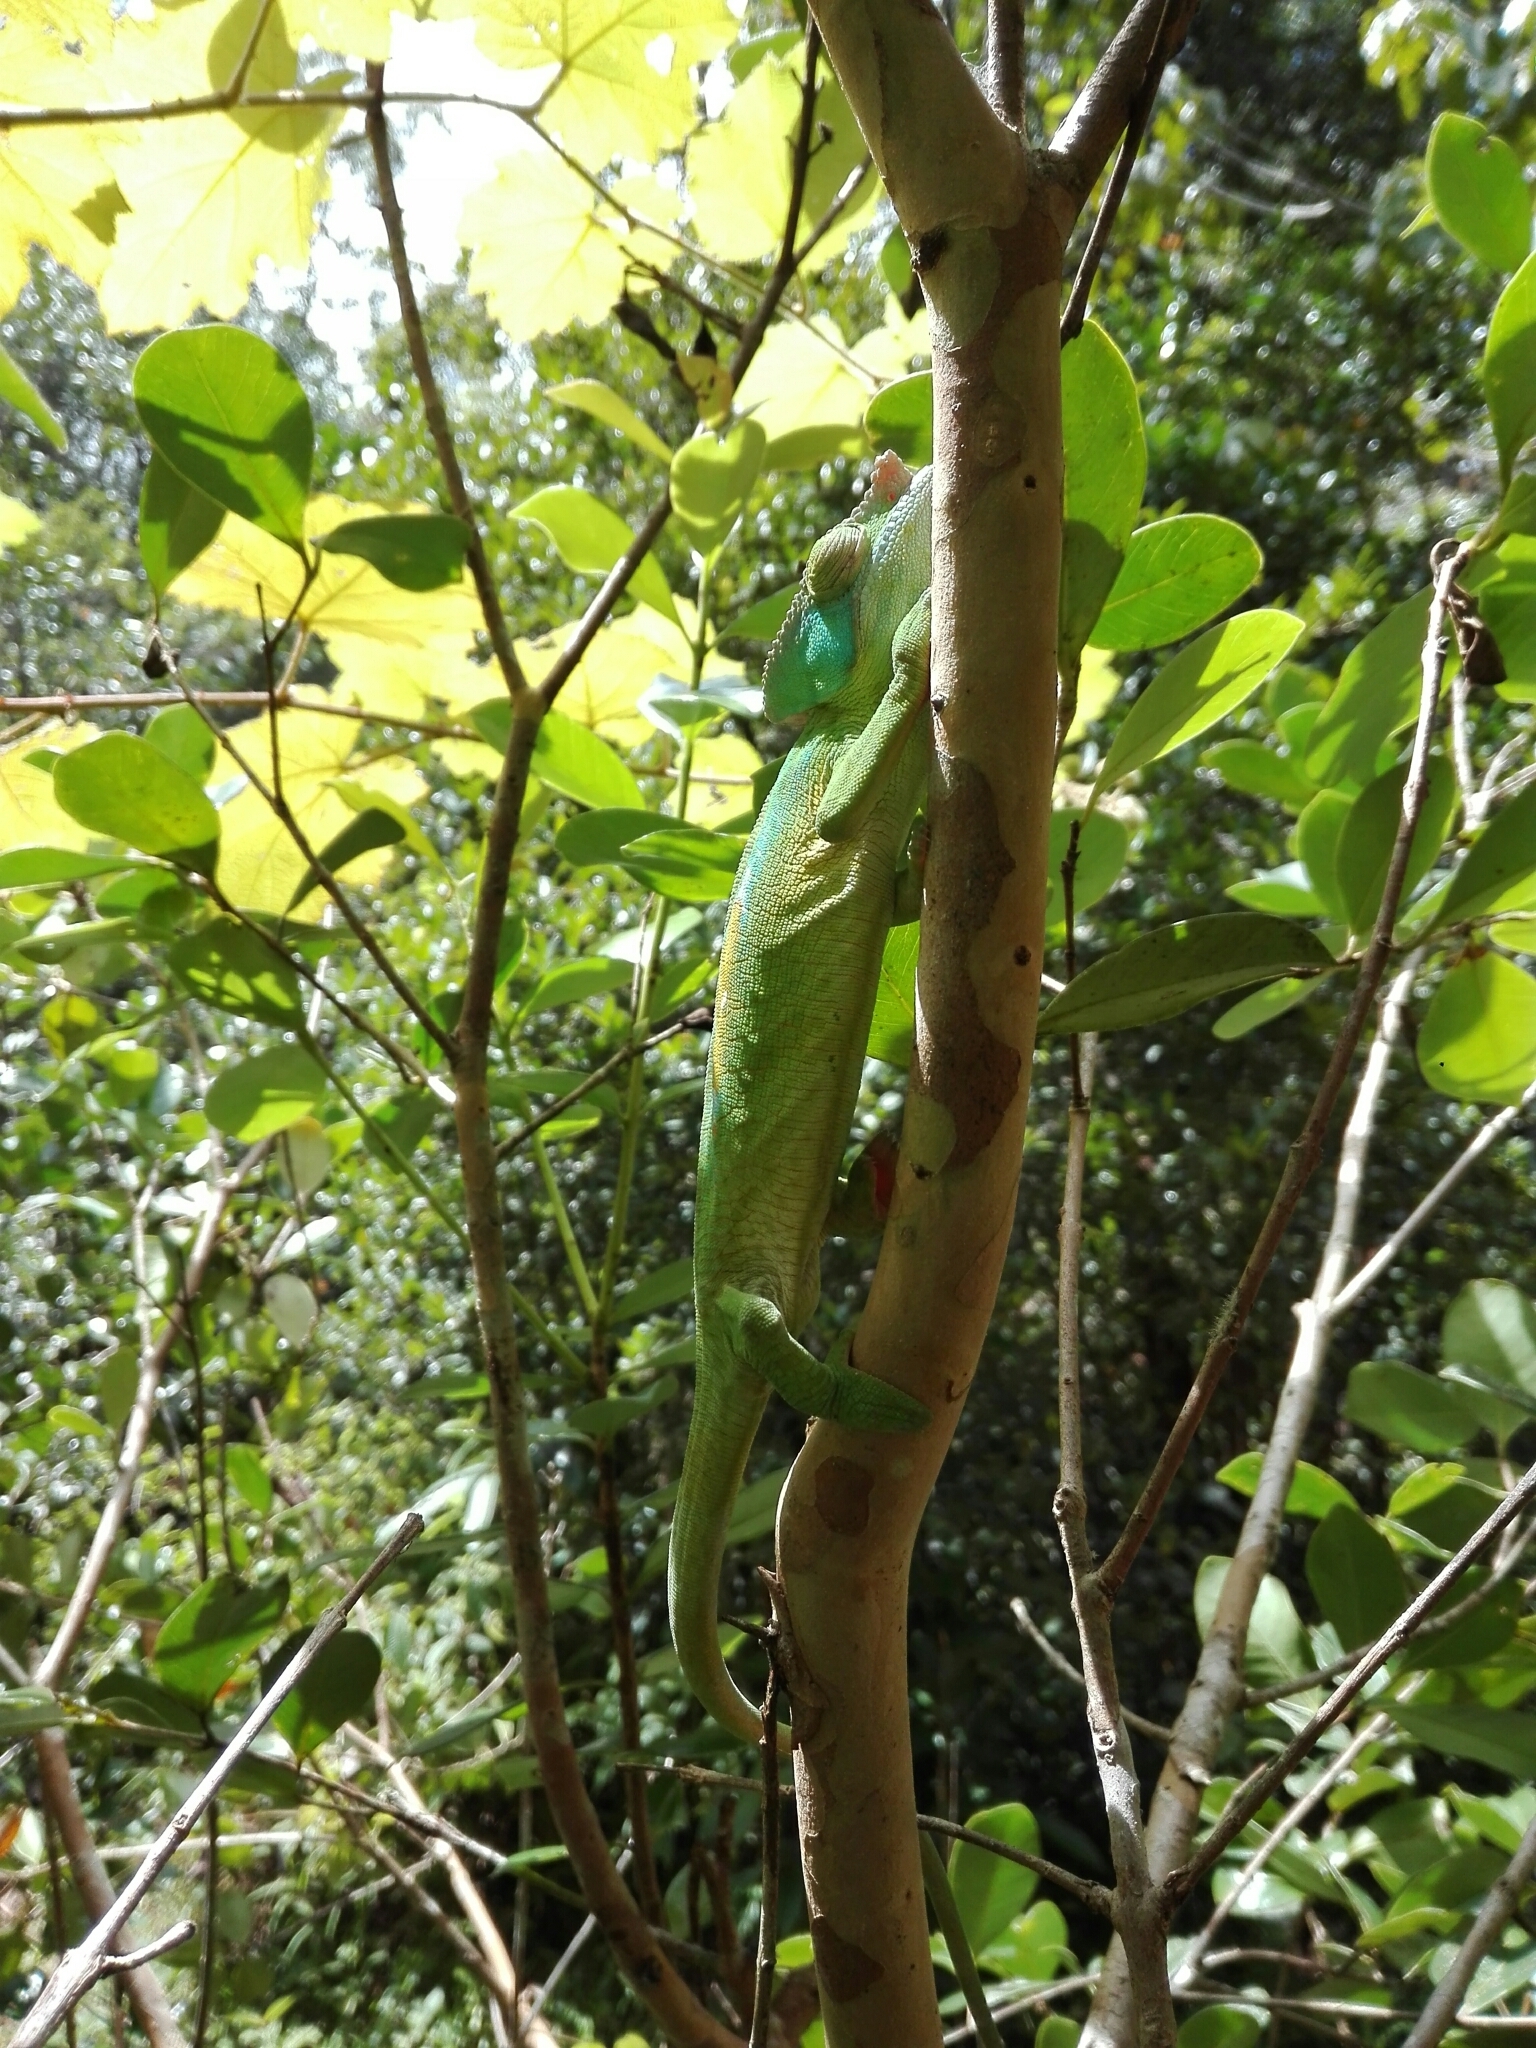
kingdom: Animalia
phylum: Chordata
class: Squamata
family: Chamaeleonidae
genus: Calumma
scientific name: Calumma parsonii
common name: Parson's chameleon
